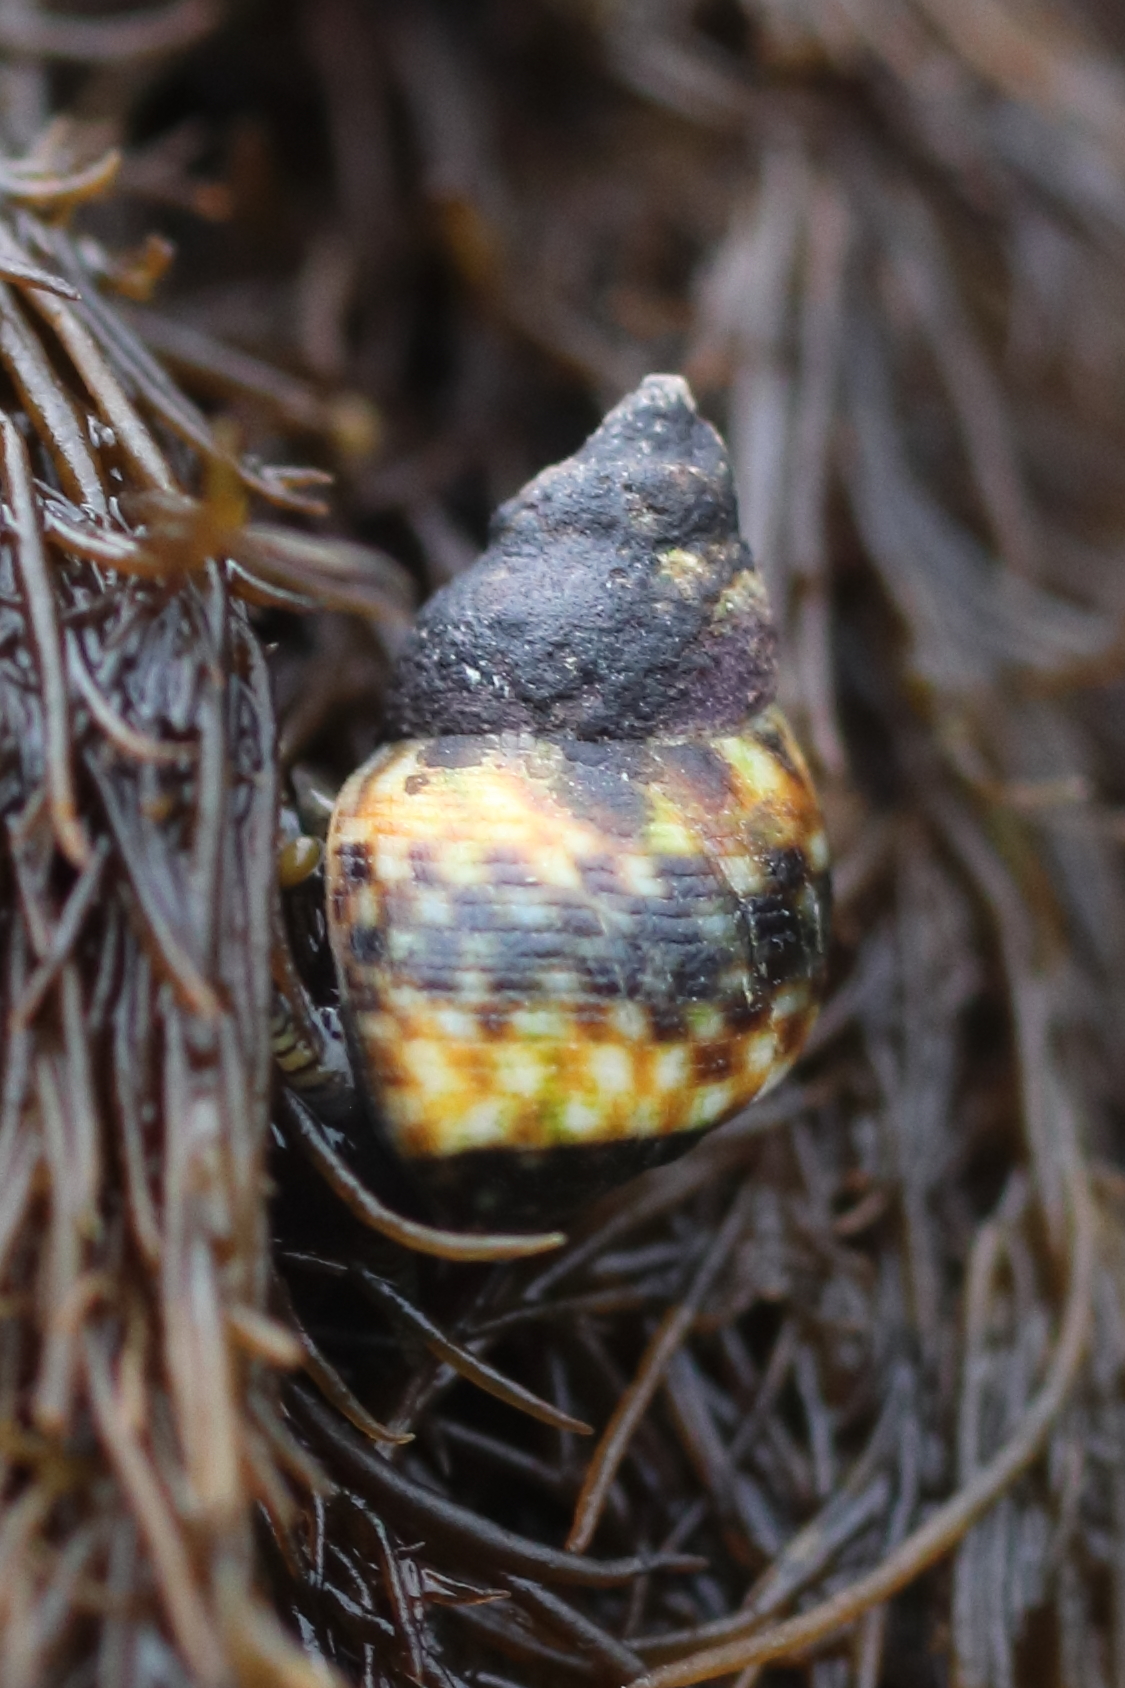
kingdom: Animalia
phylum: Mollusca
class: Gastropoda
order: Littorinimorpha
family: Littorinidae
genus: Littorina
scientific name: Littorina scutulata
